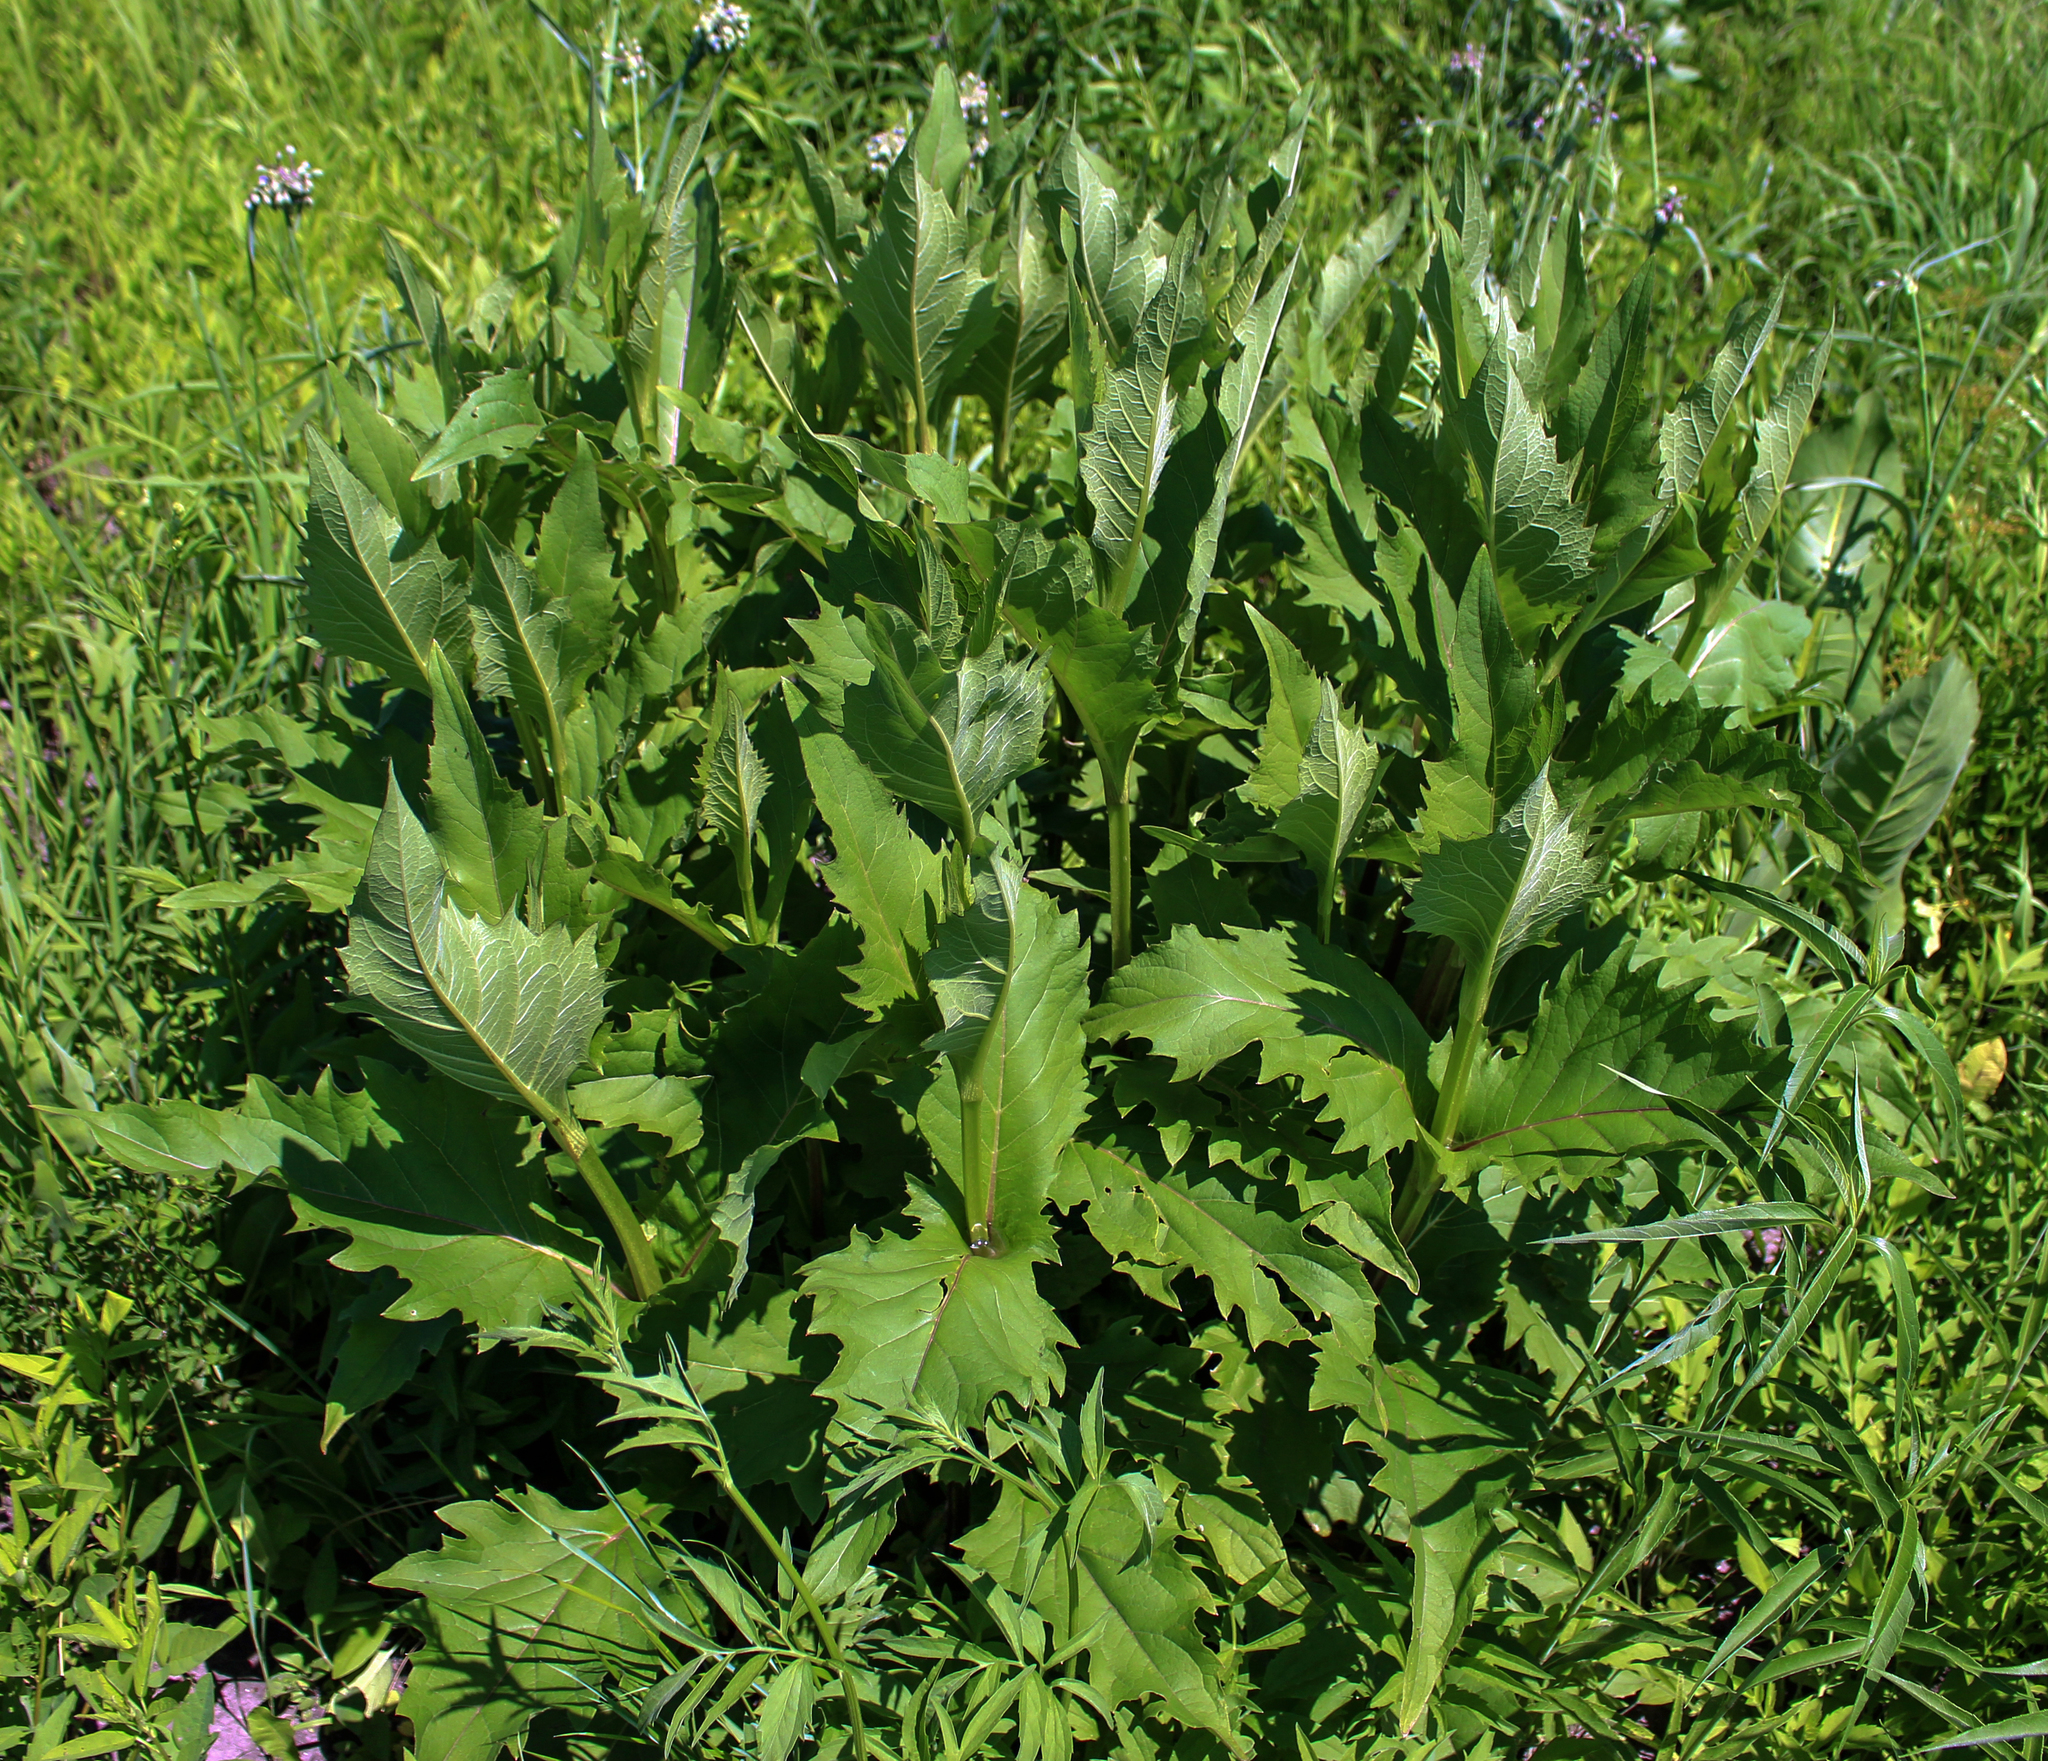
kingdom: Plantae
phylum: Tracheophyta
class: Magnoliopsida
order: Asterales
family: Asteraceae
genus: Silphium
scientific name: Silphium perfoliatum
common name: Cup-plant
